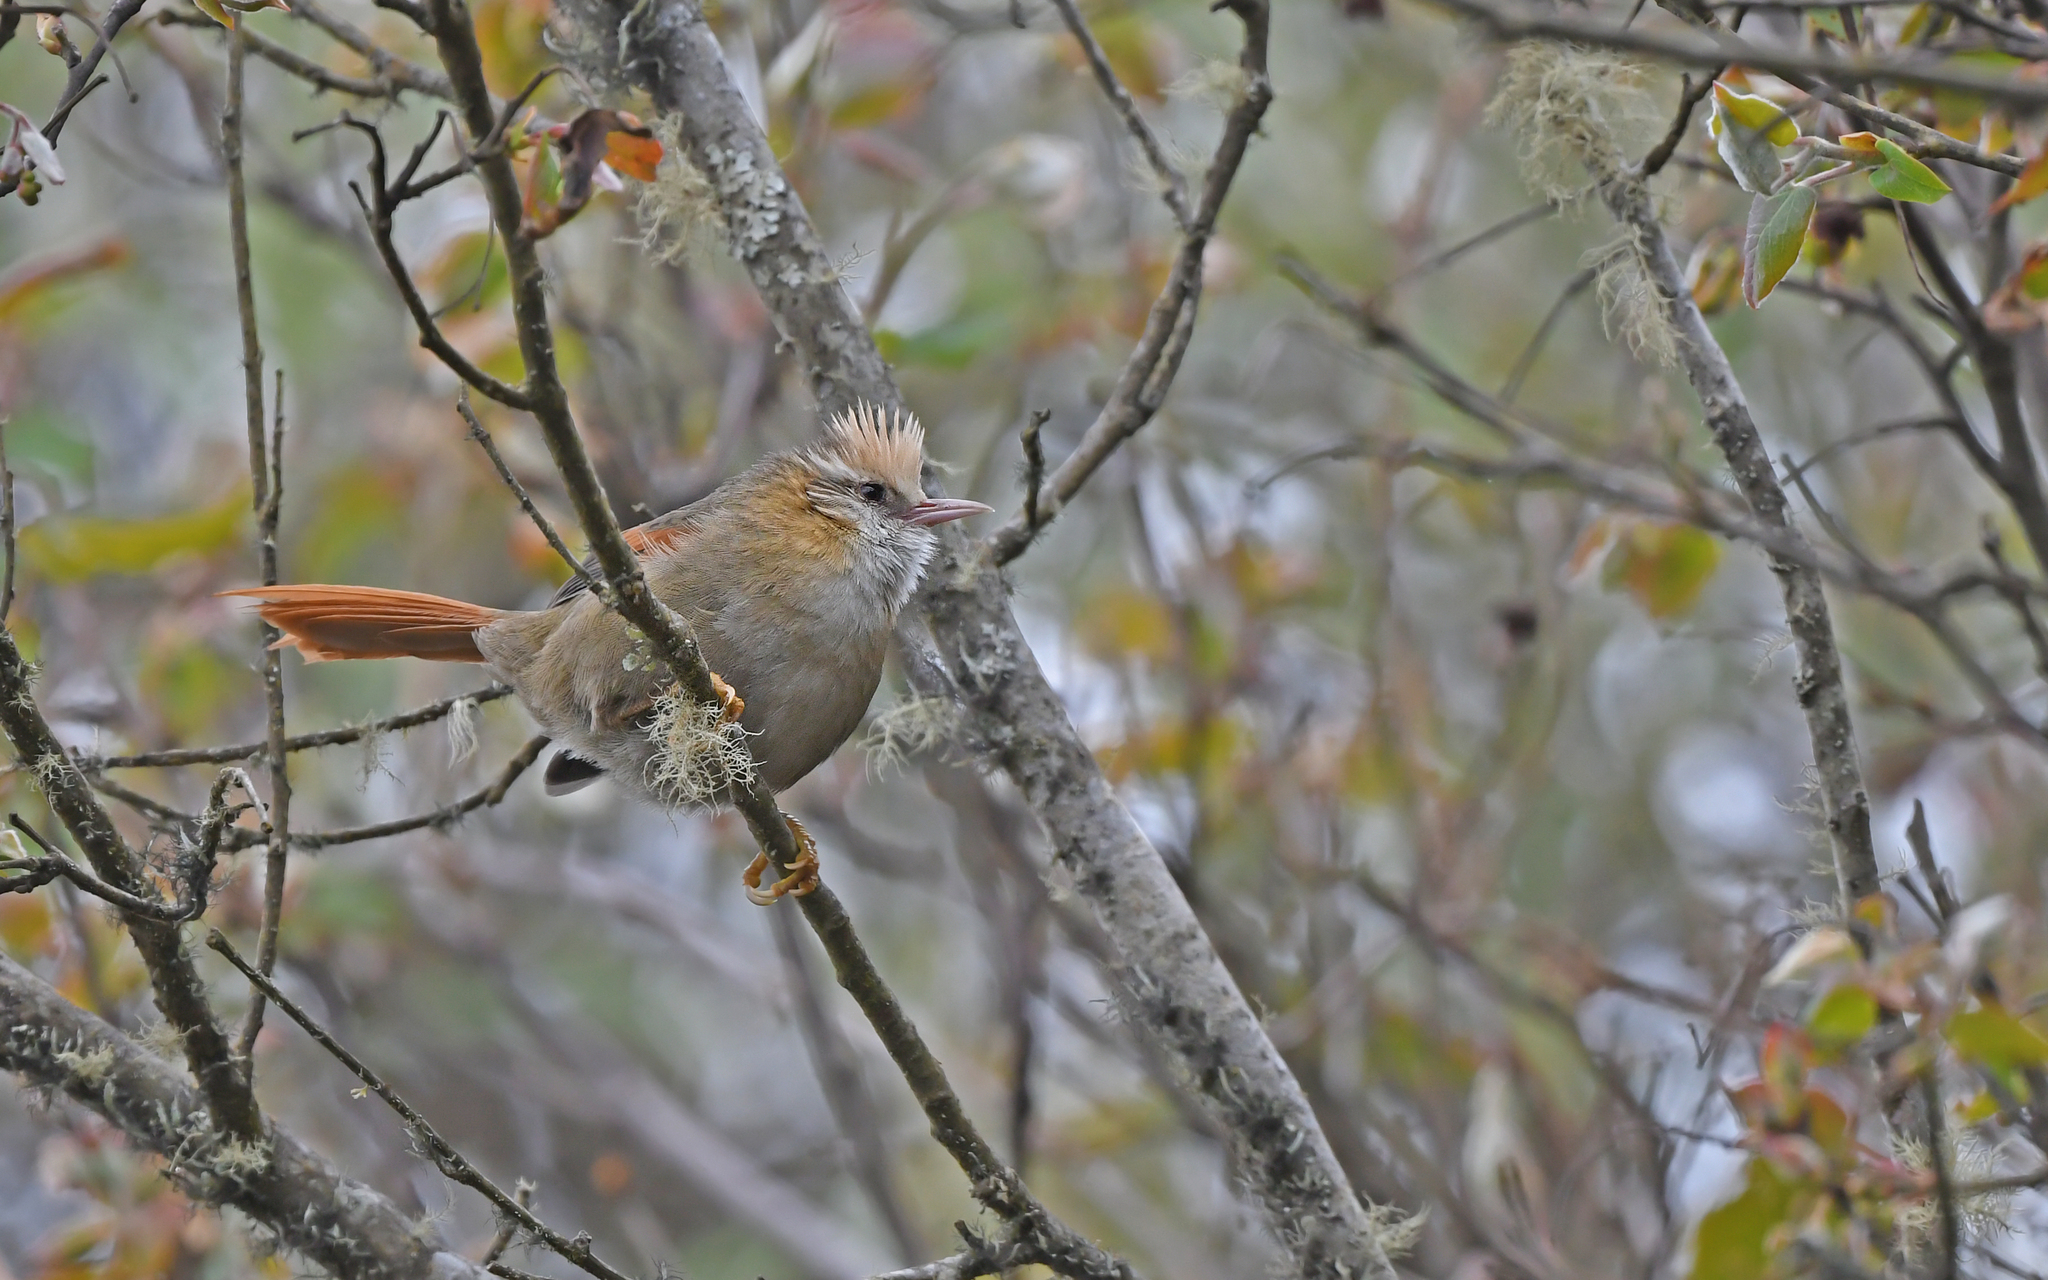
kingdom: Animalia
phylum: Chordata
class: Aves
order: Passeriformes
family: Furnariidae
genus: Cranioleuca
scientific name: Cranioleuca albicapilla
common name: Creamy-crested spinetail
